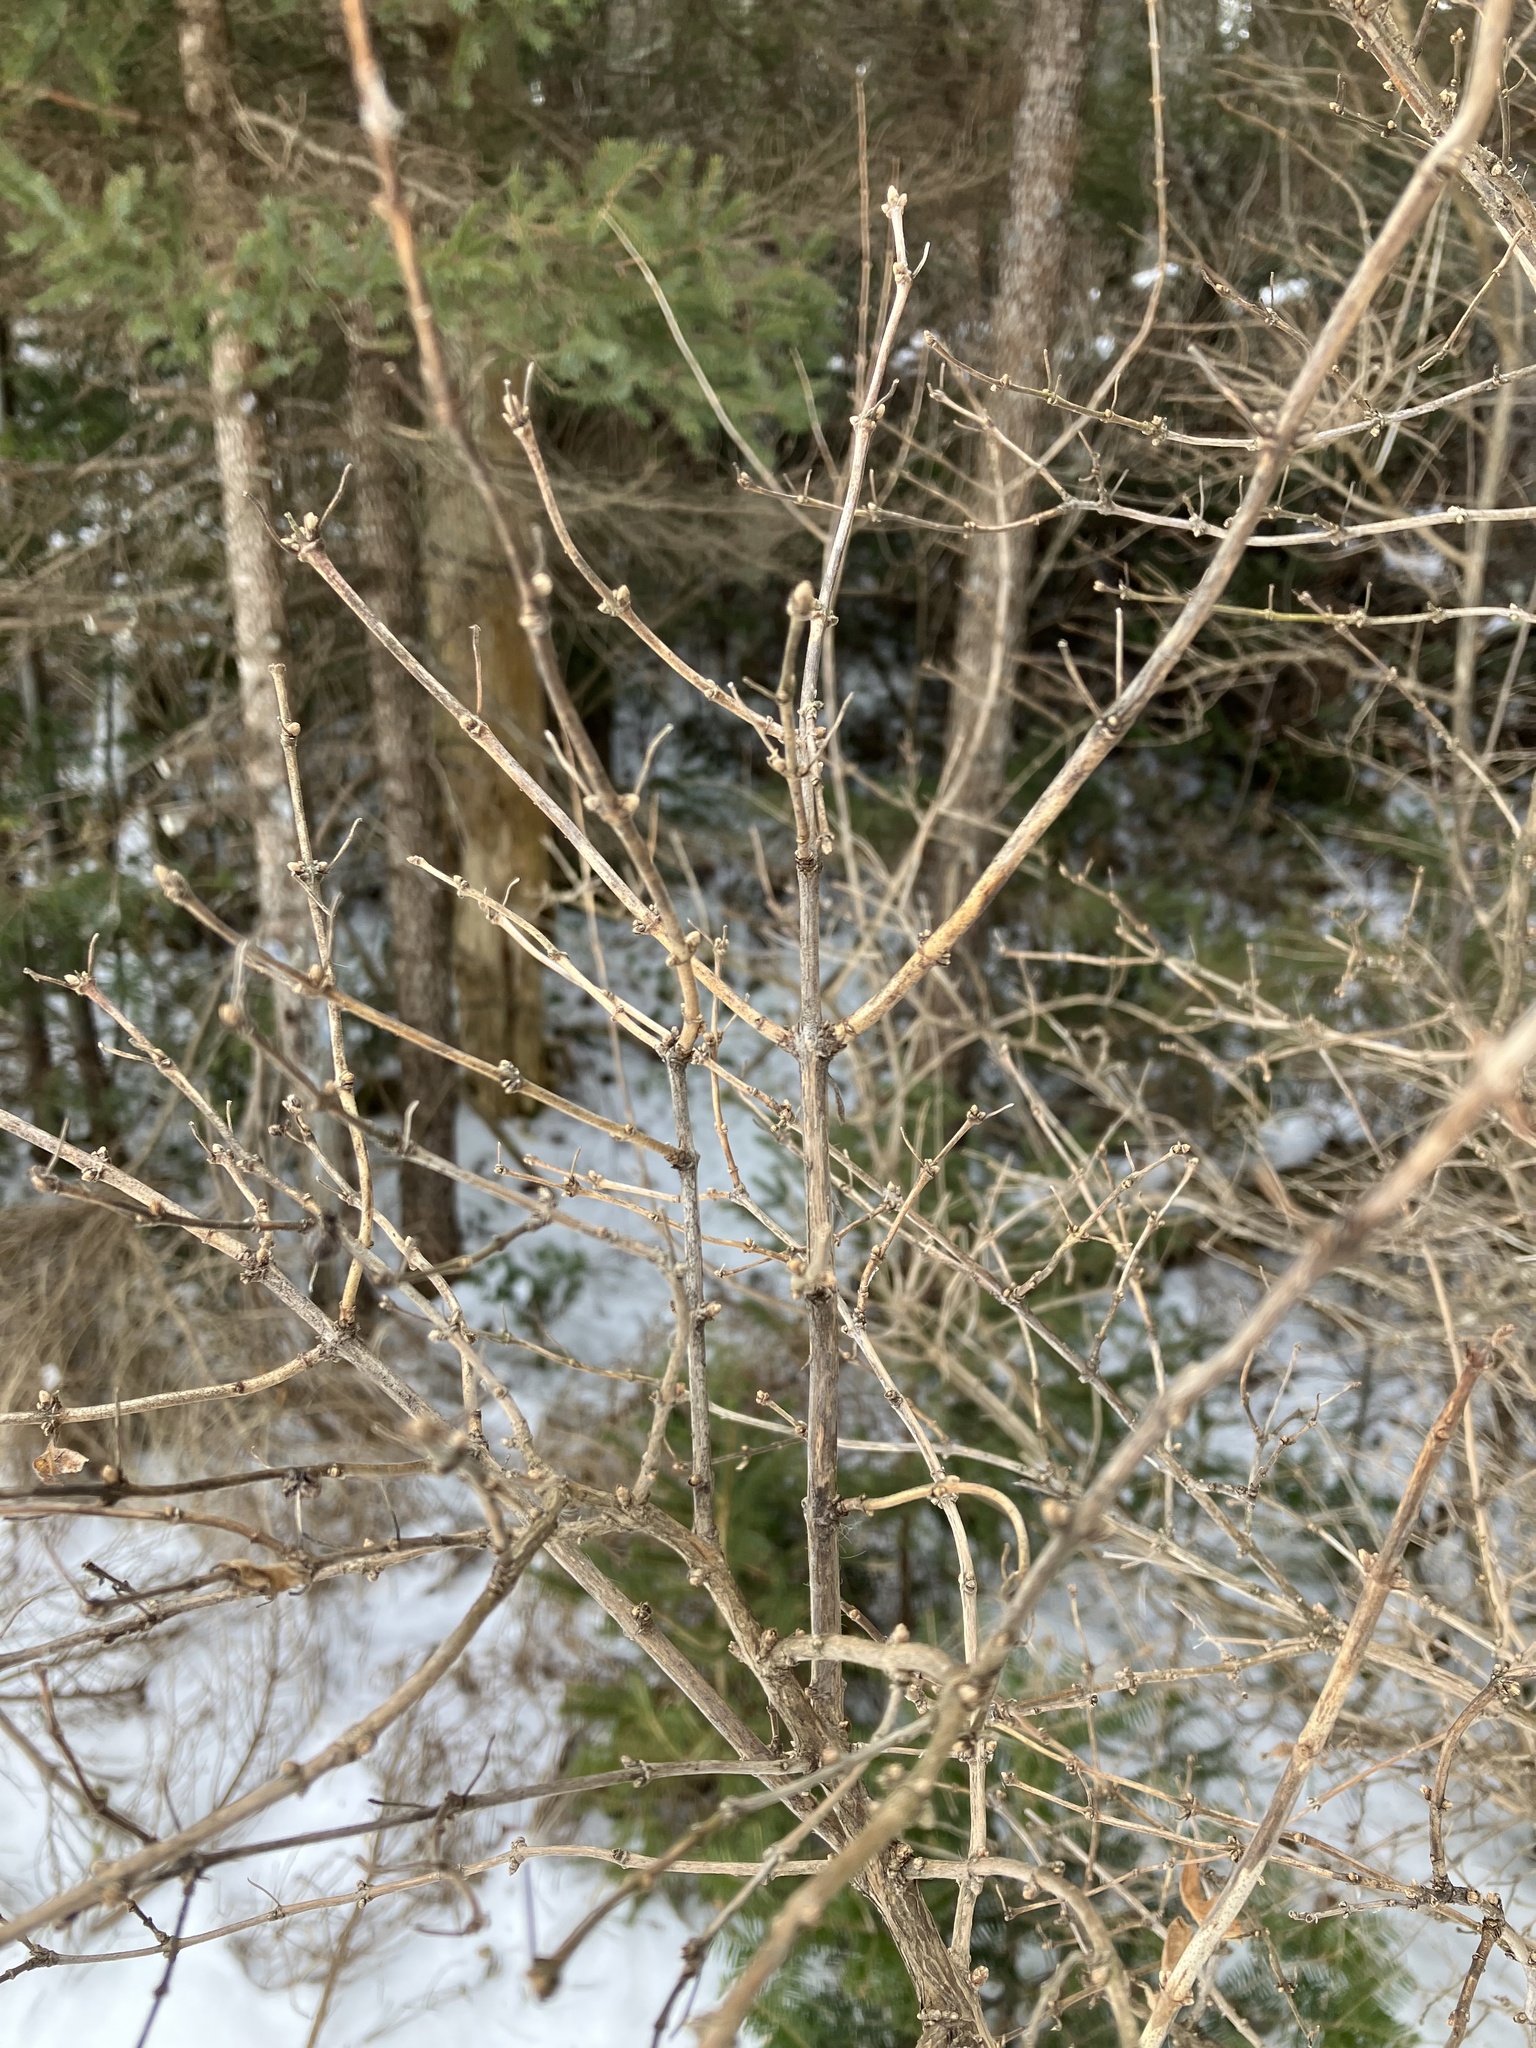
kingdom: Plantae
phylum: Tracheophyta
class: Magnoliopsida
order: Dipsacales
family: Caprifoliaceae
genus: Lonicera
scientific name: Lonicera
